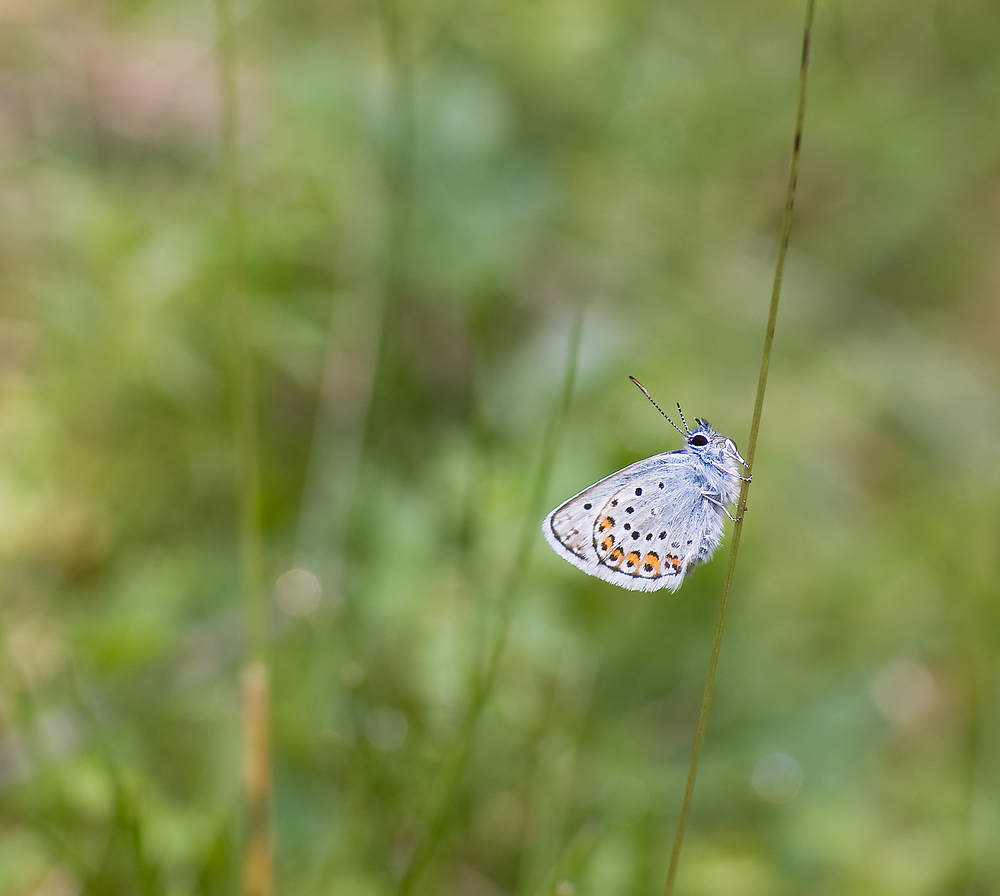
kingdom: Animalia
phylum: Arthropoda
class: Insecta
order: Lepidoptera
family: Lycaenidae
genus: Plebejus
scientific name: Plebejus argus
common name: Silver-studded blue
